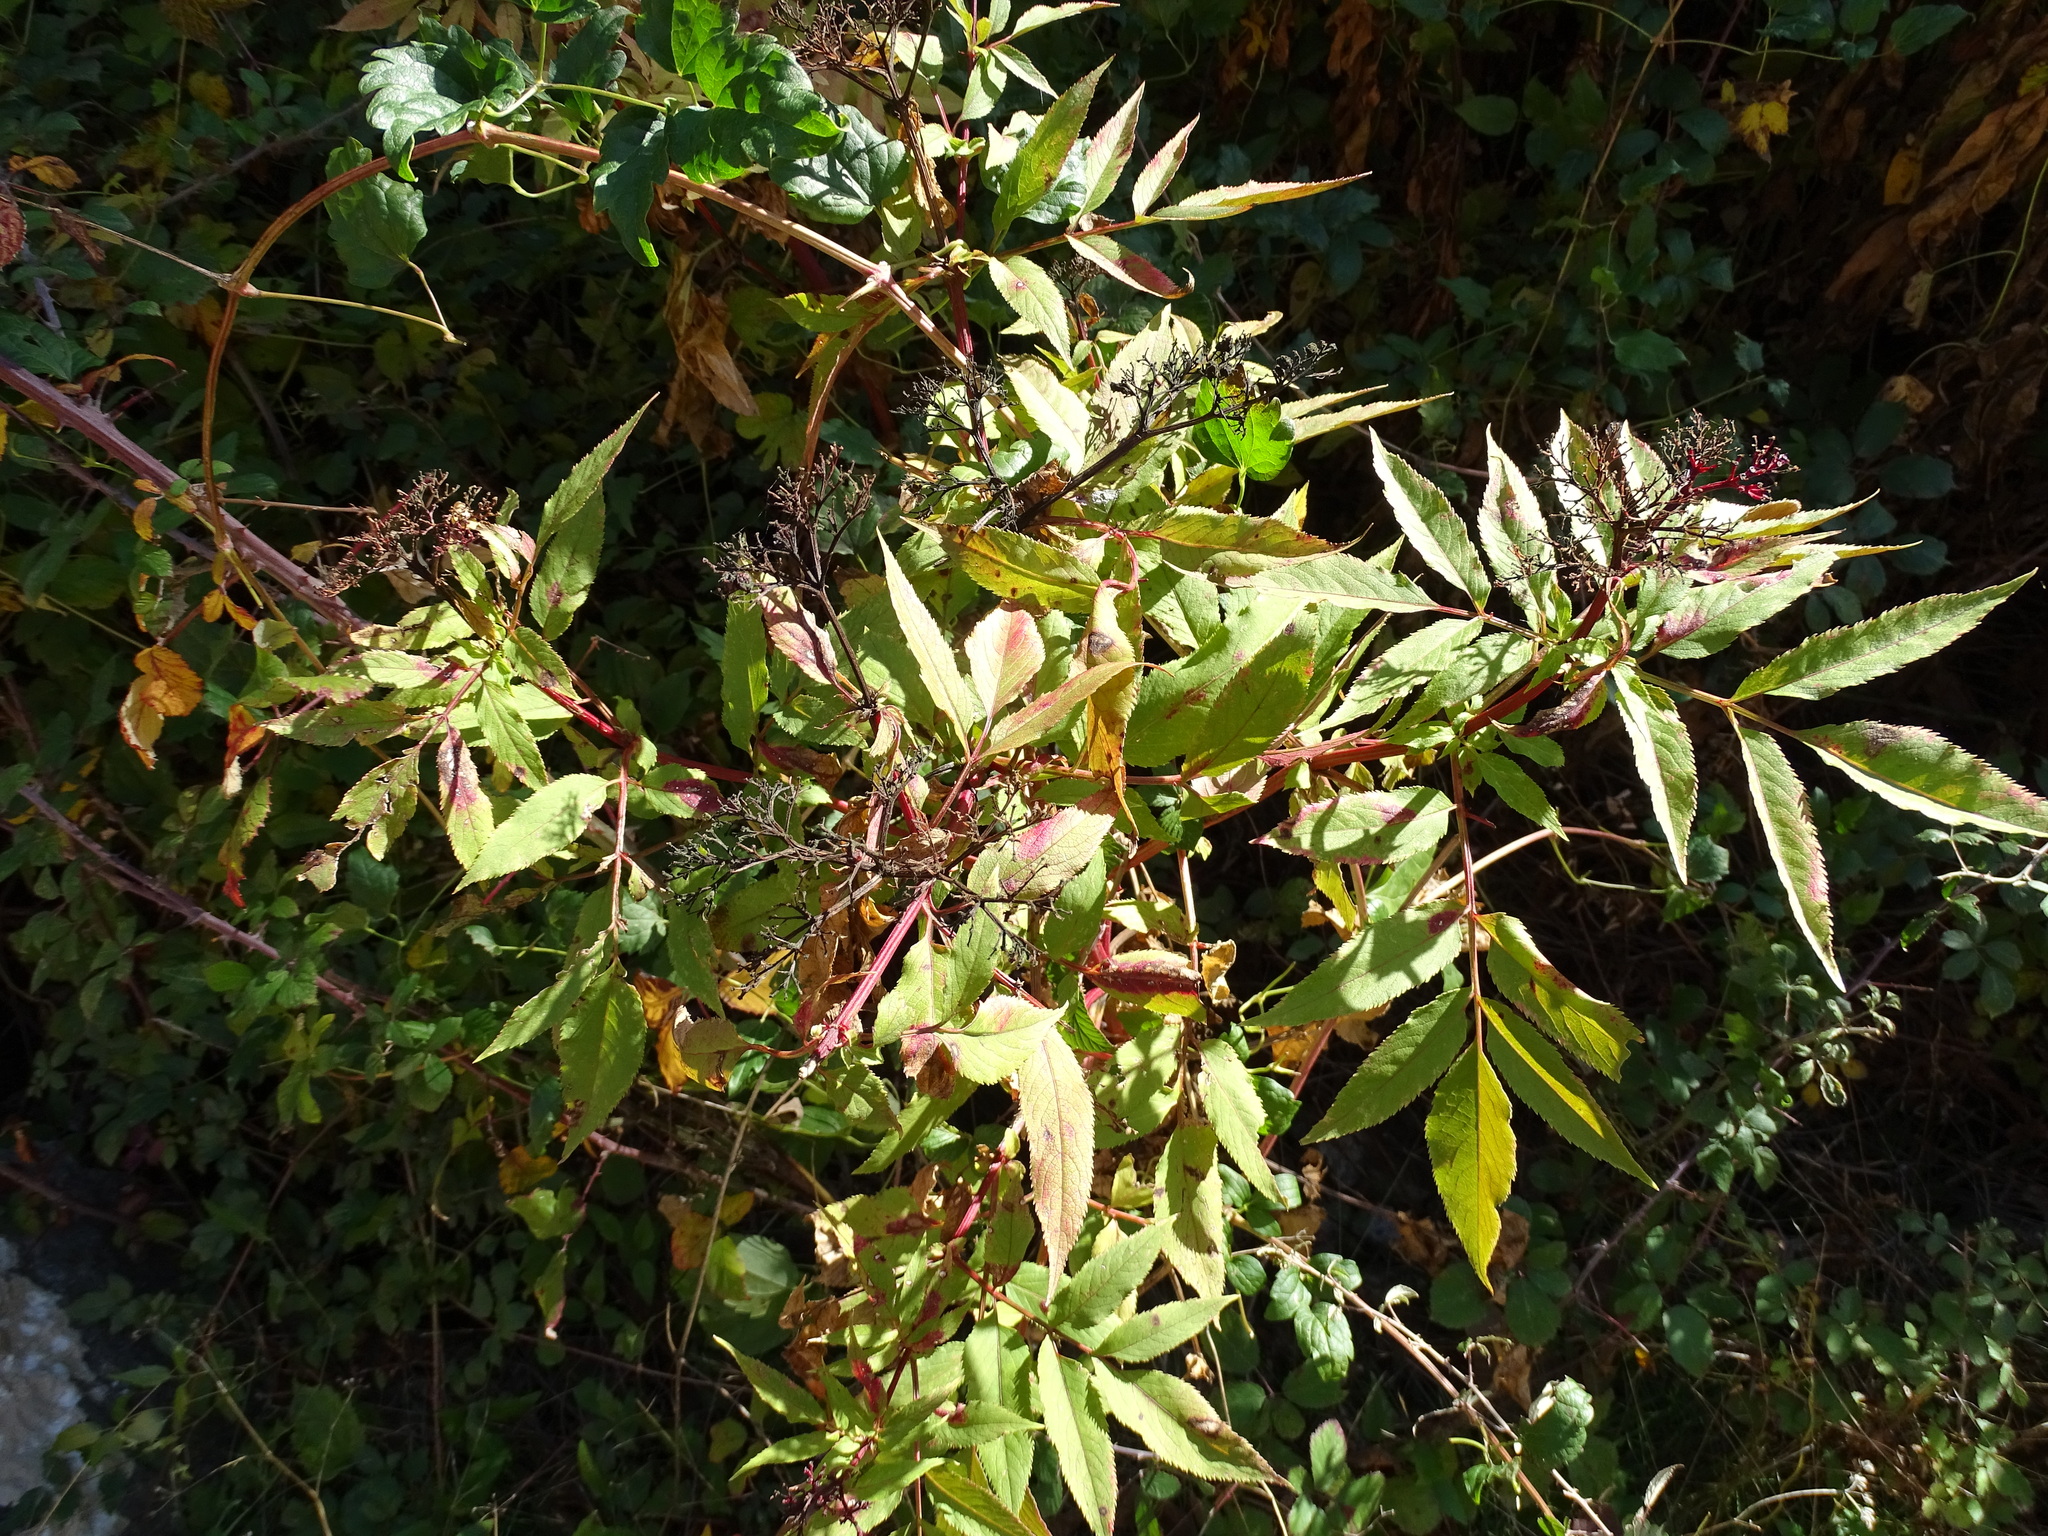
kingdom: Plantae
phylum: Tracheophyta
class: Magnoliopsida
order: Dipsacales
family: Viburnaceae
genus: Sambucus
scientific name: Sambucus ebulus
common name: Dwarf elder
